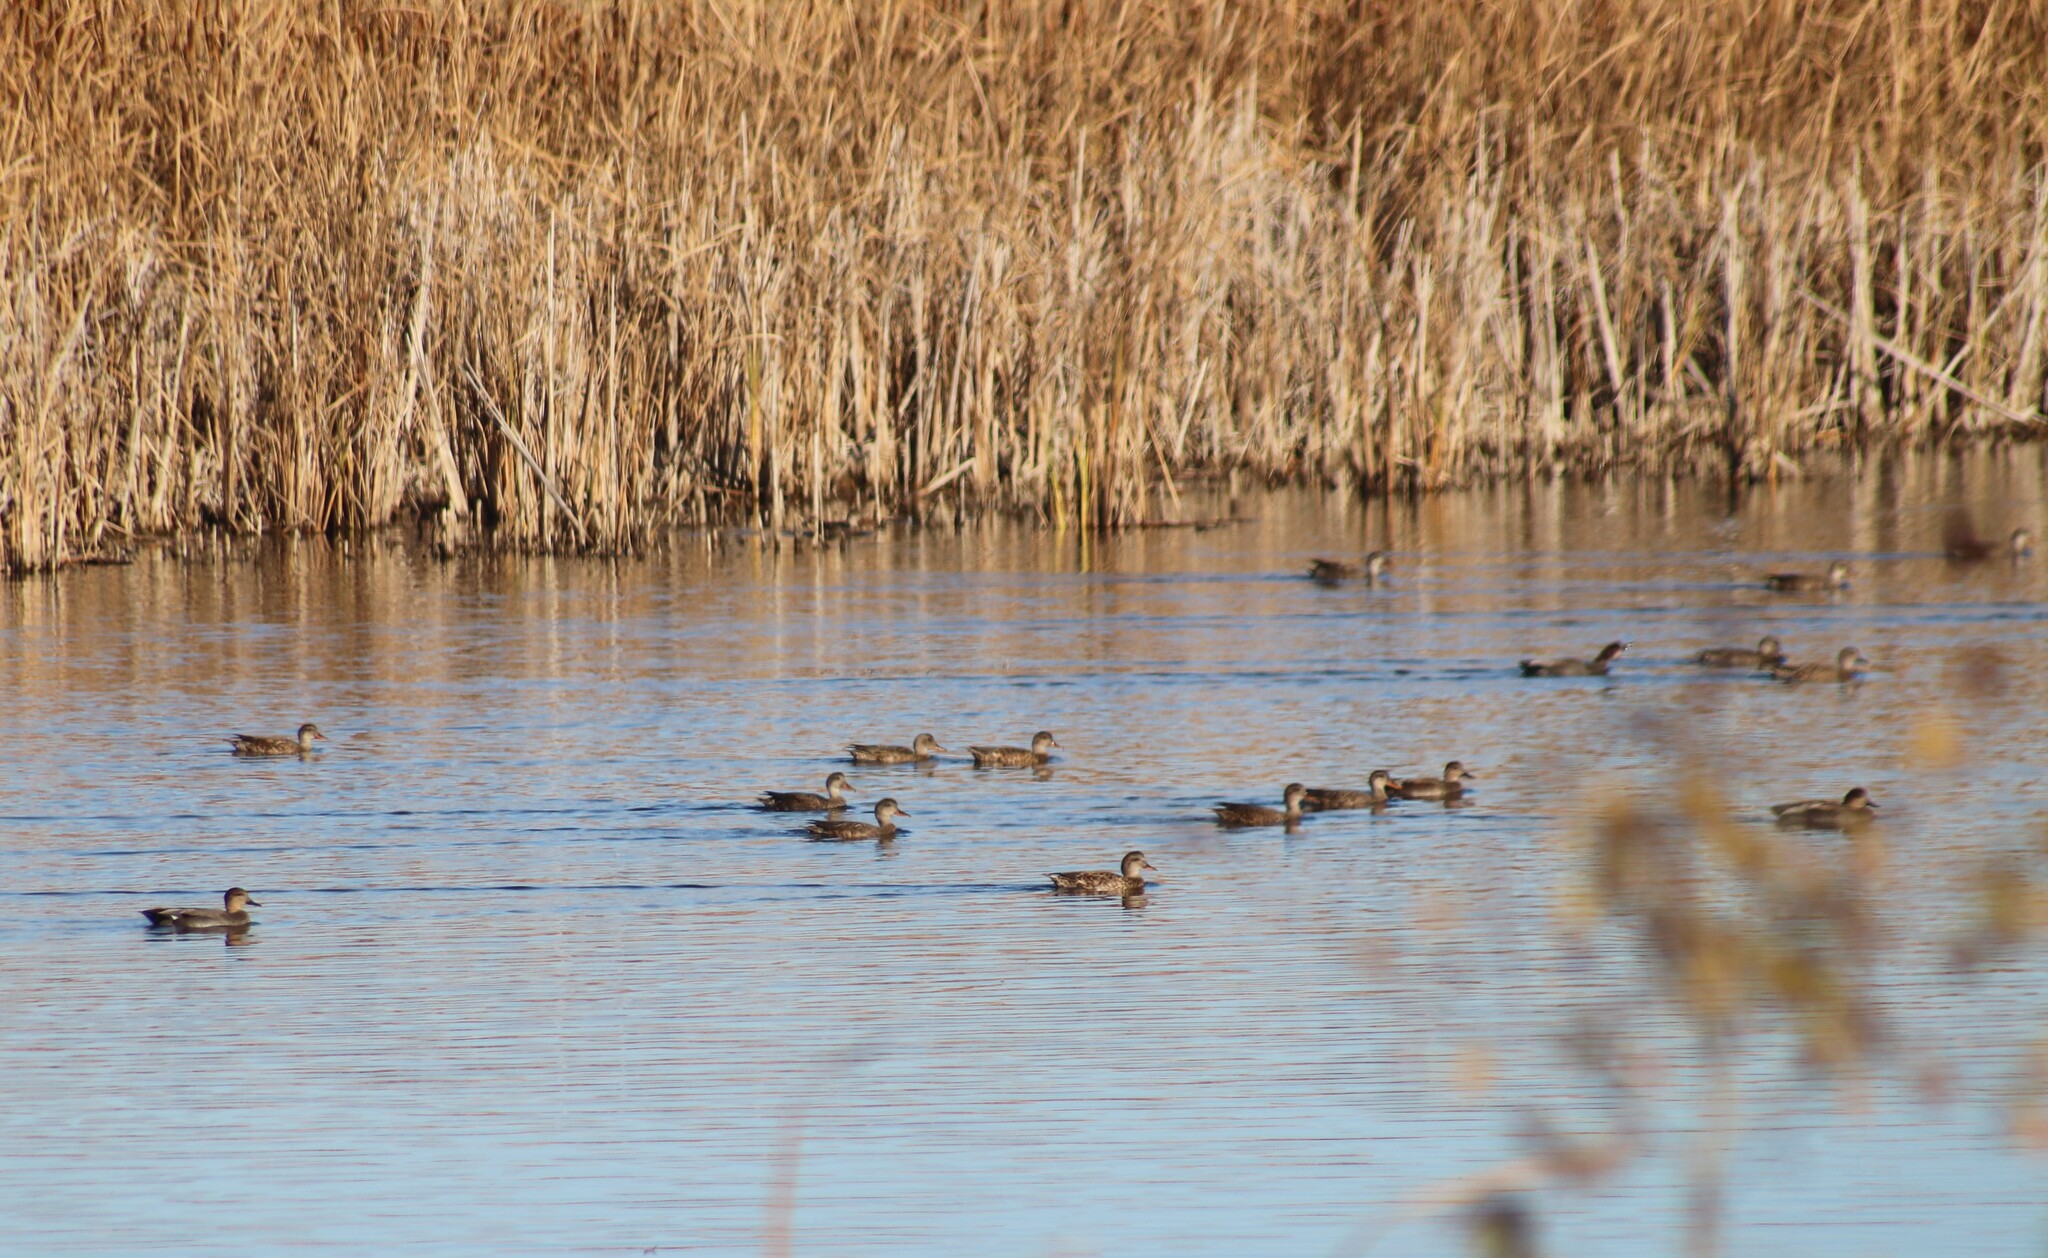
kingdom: Animalia
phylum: Chordata
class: Aves
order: Anseriformes
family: Anatidae
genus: Mareca
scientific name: Mareca strepera
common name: Gadwall
